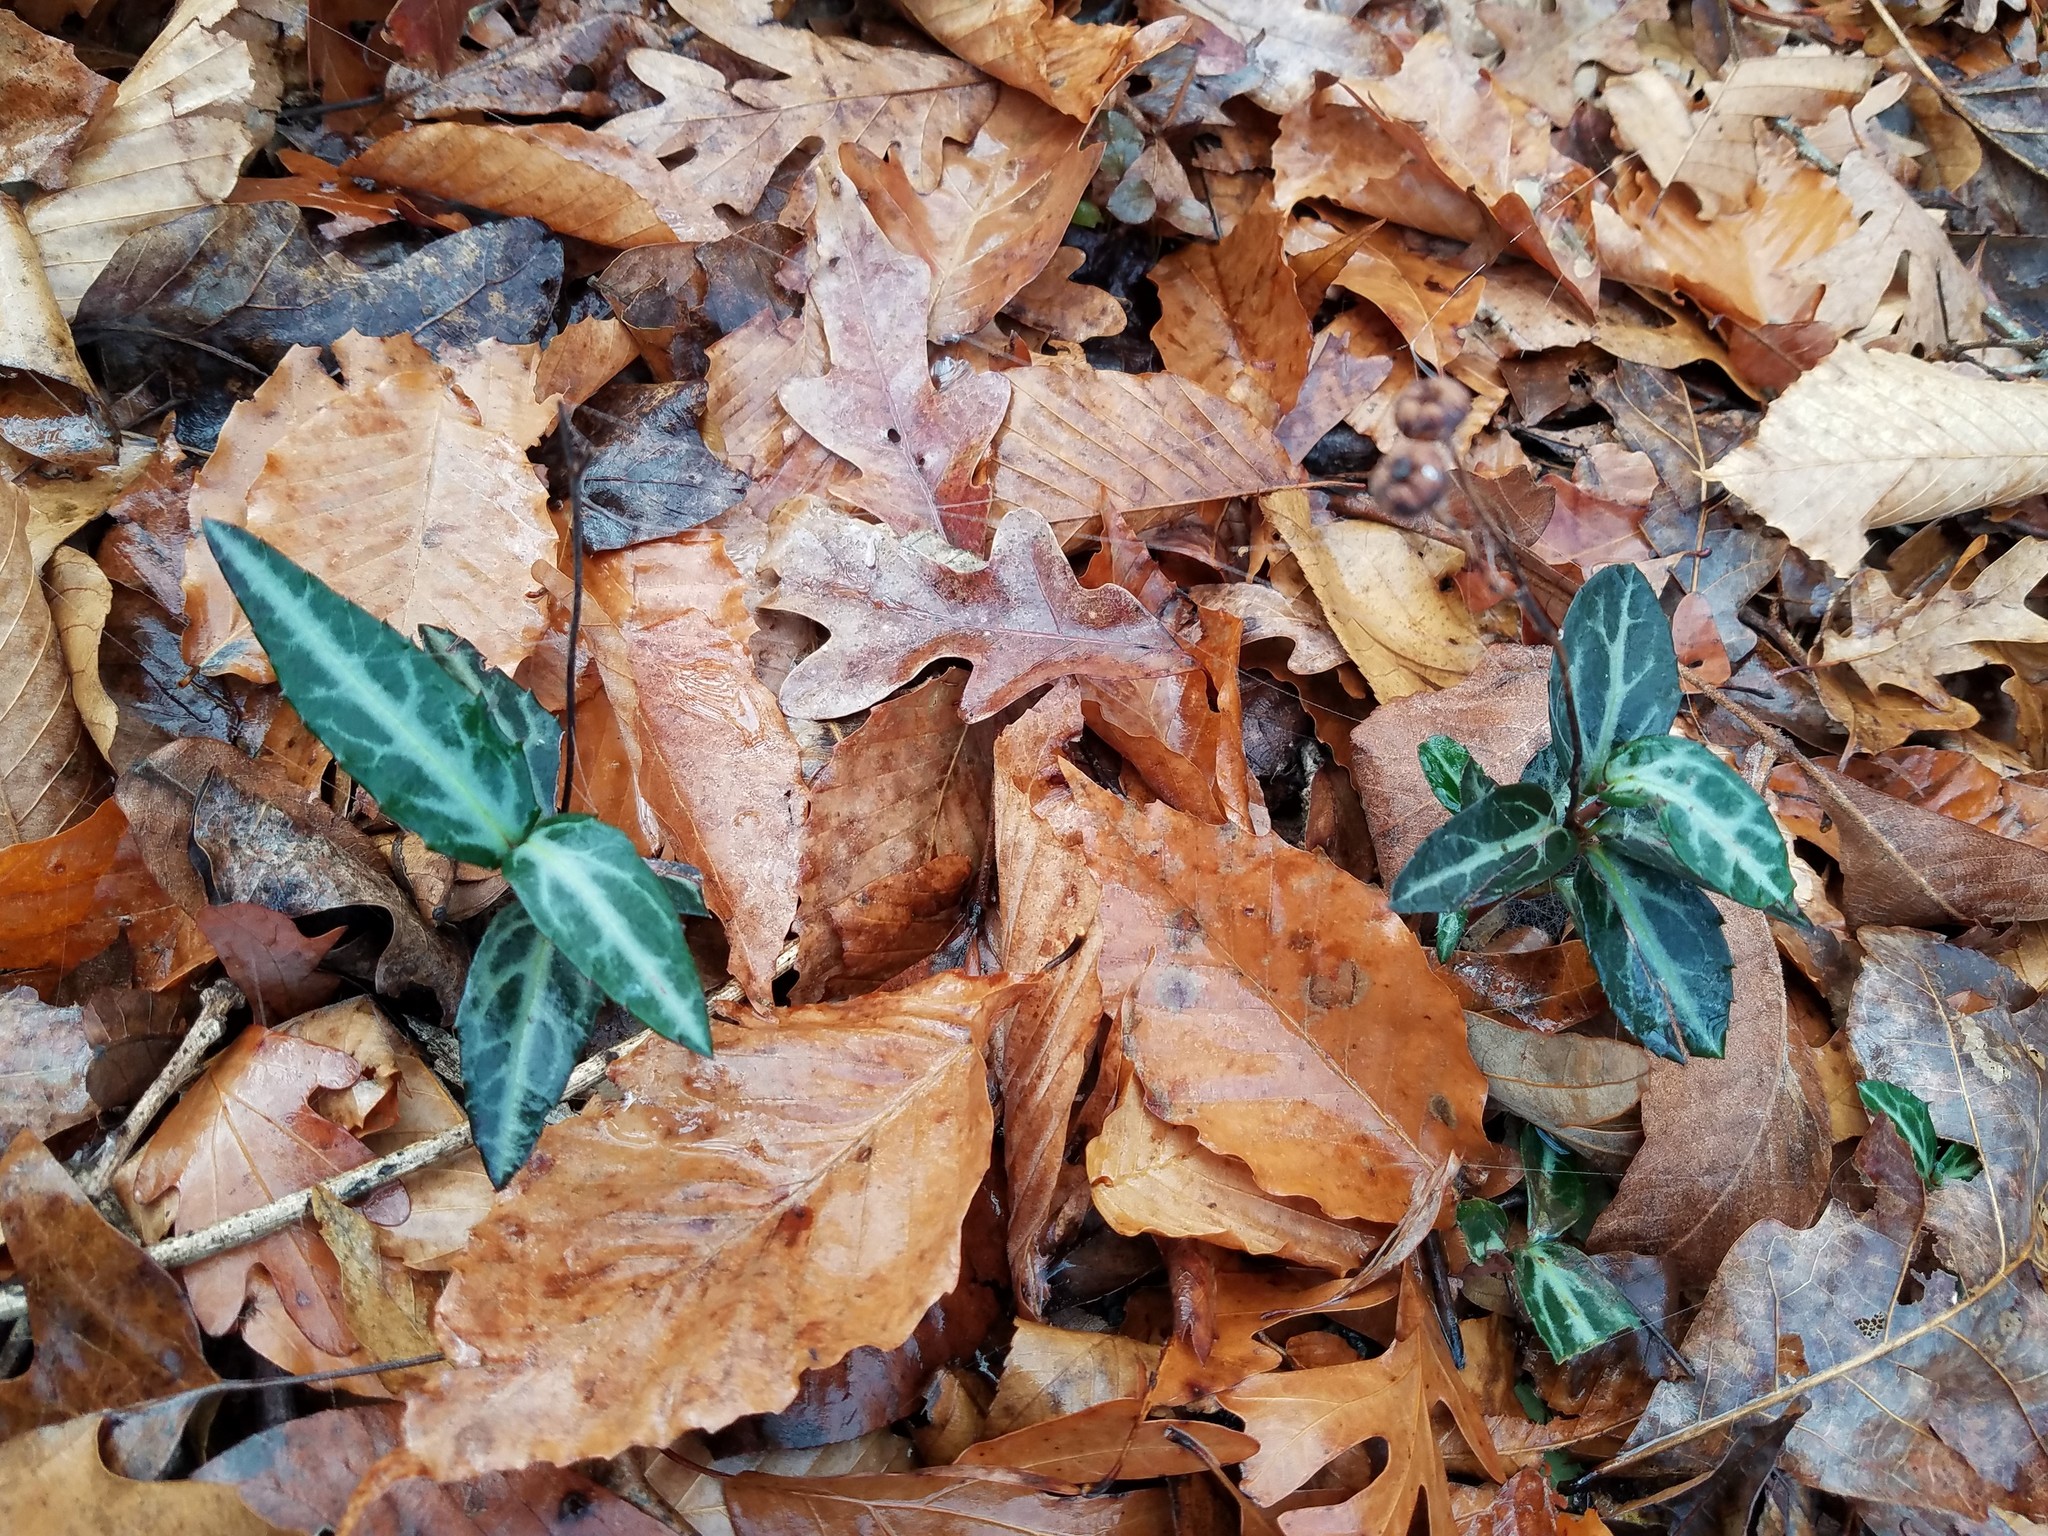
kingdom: Plantae
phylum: Tracheophyta
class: Magnoliopsida
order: Ericales
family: Ericaceae
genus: Chimaphila
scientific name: Chimaphila maculata
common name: Spotted pipsissewa
